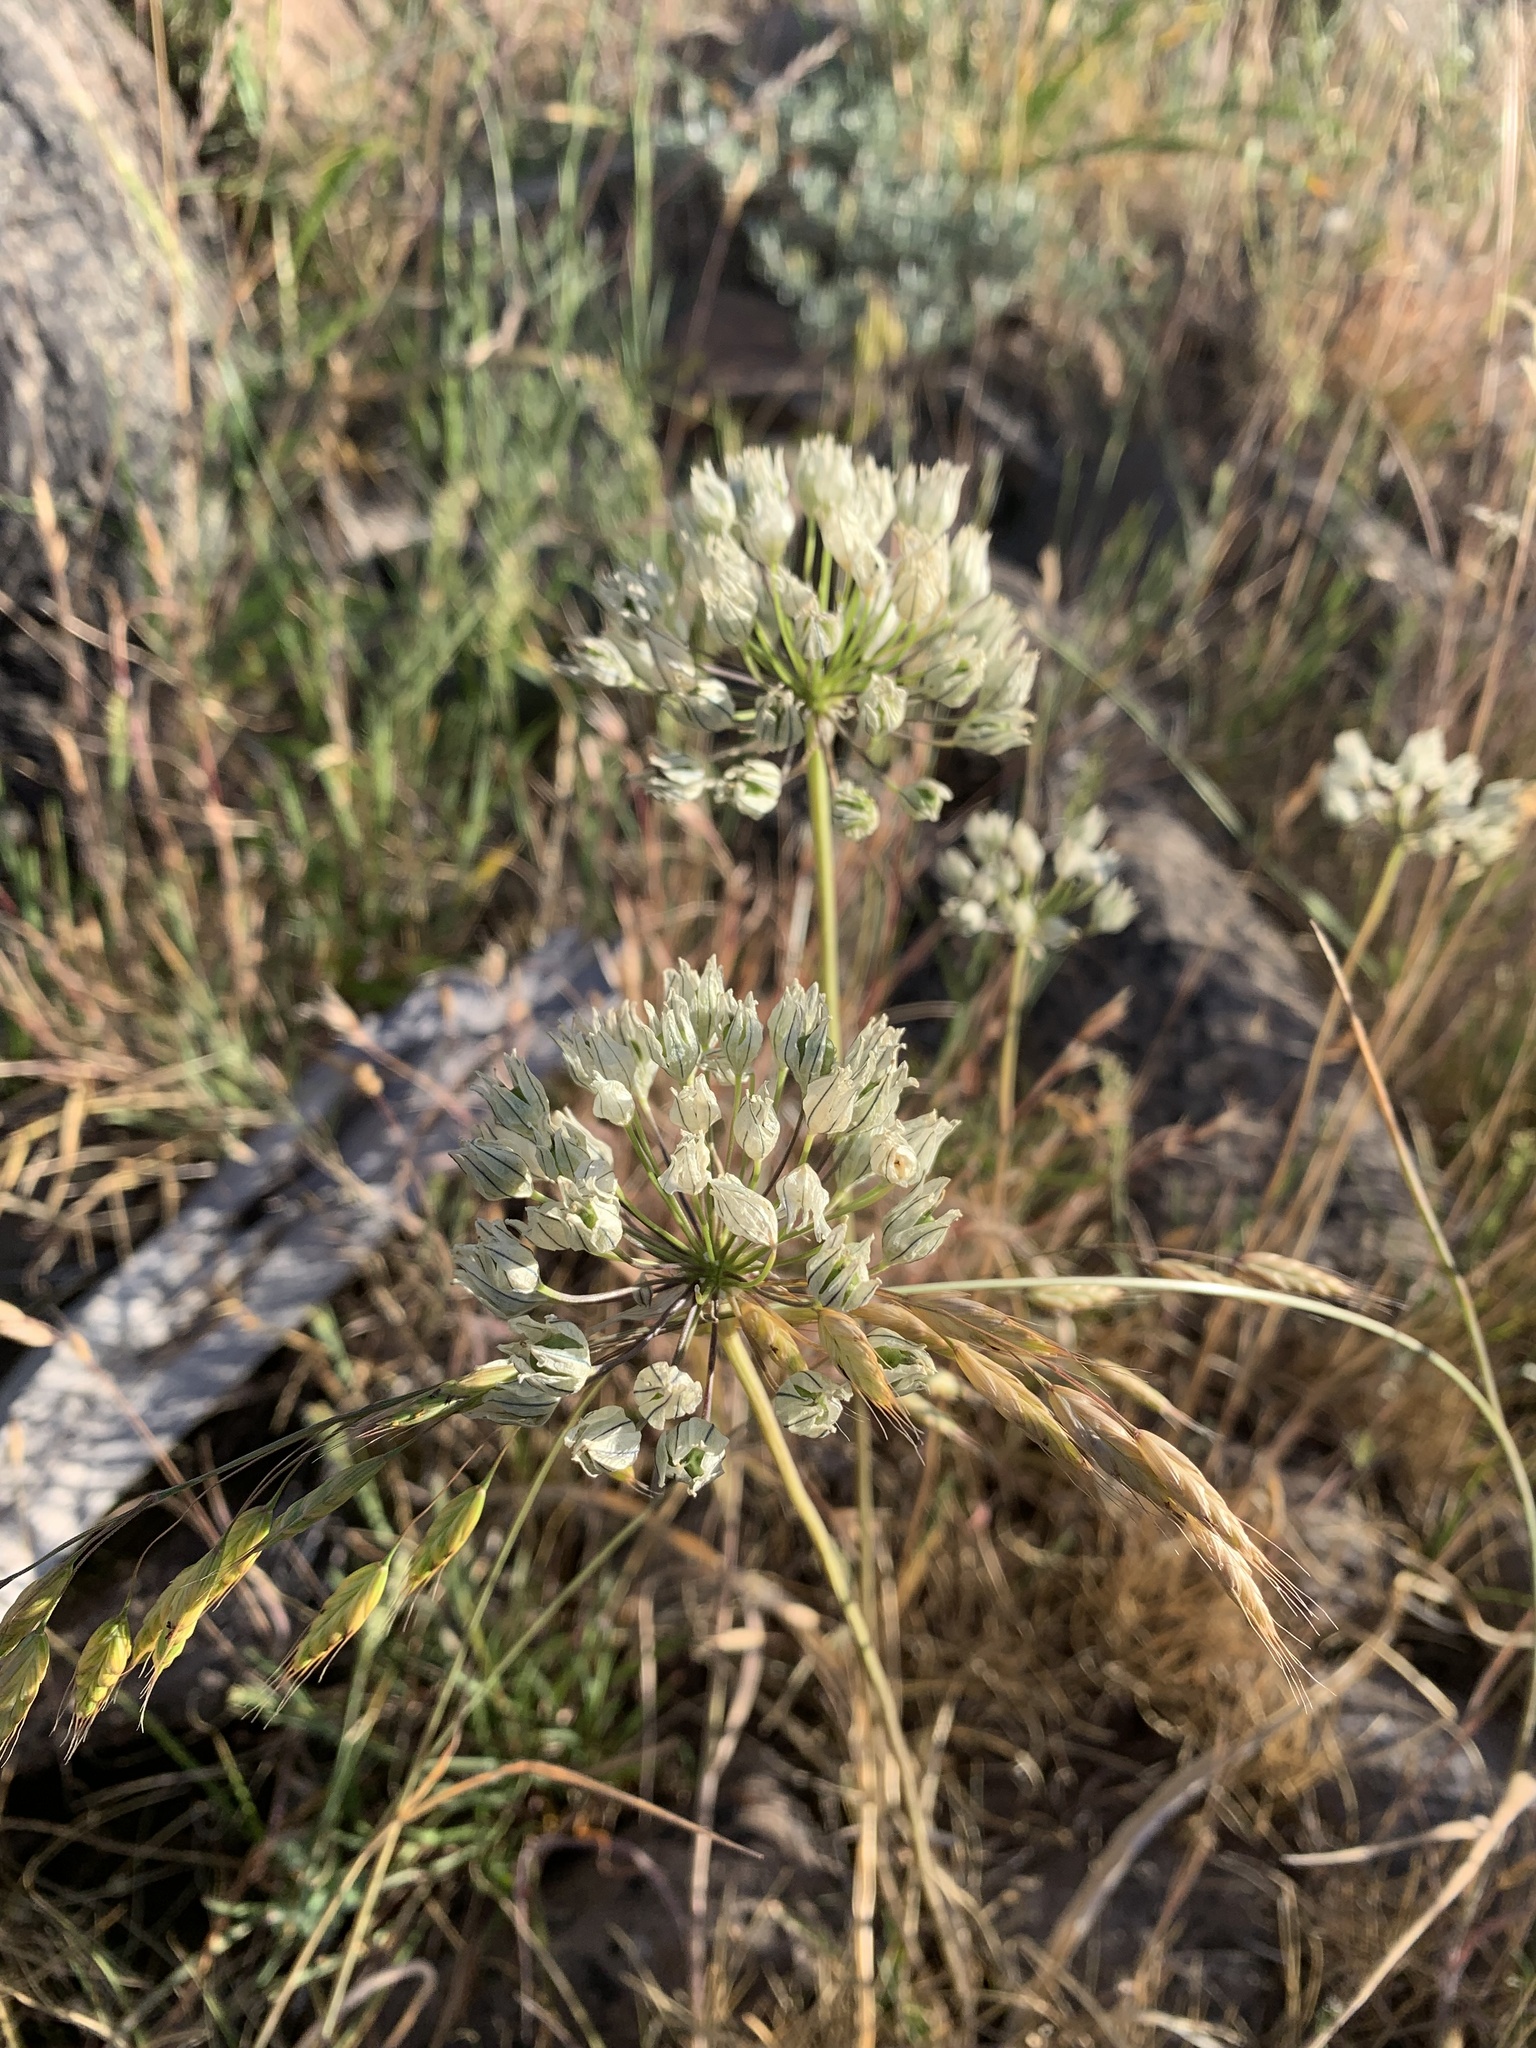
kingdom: Plantae
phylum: Tracheophyta
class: Liliopsida
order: Asparagales
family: Asparagaceae
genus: Triteleia
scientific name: Triteleia hyacinthina
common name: White brodiaea
